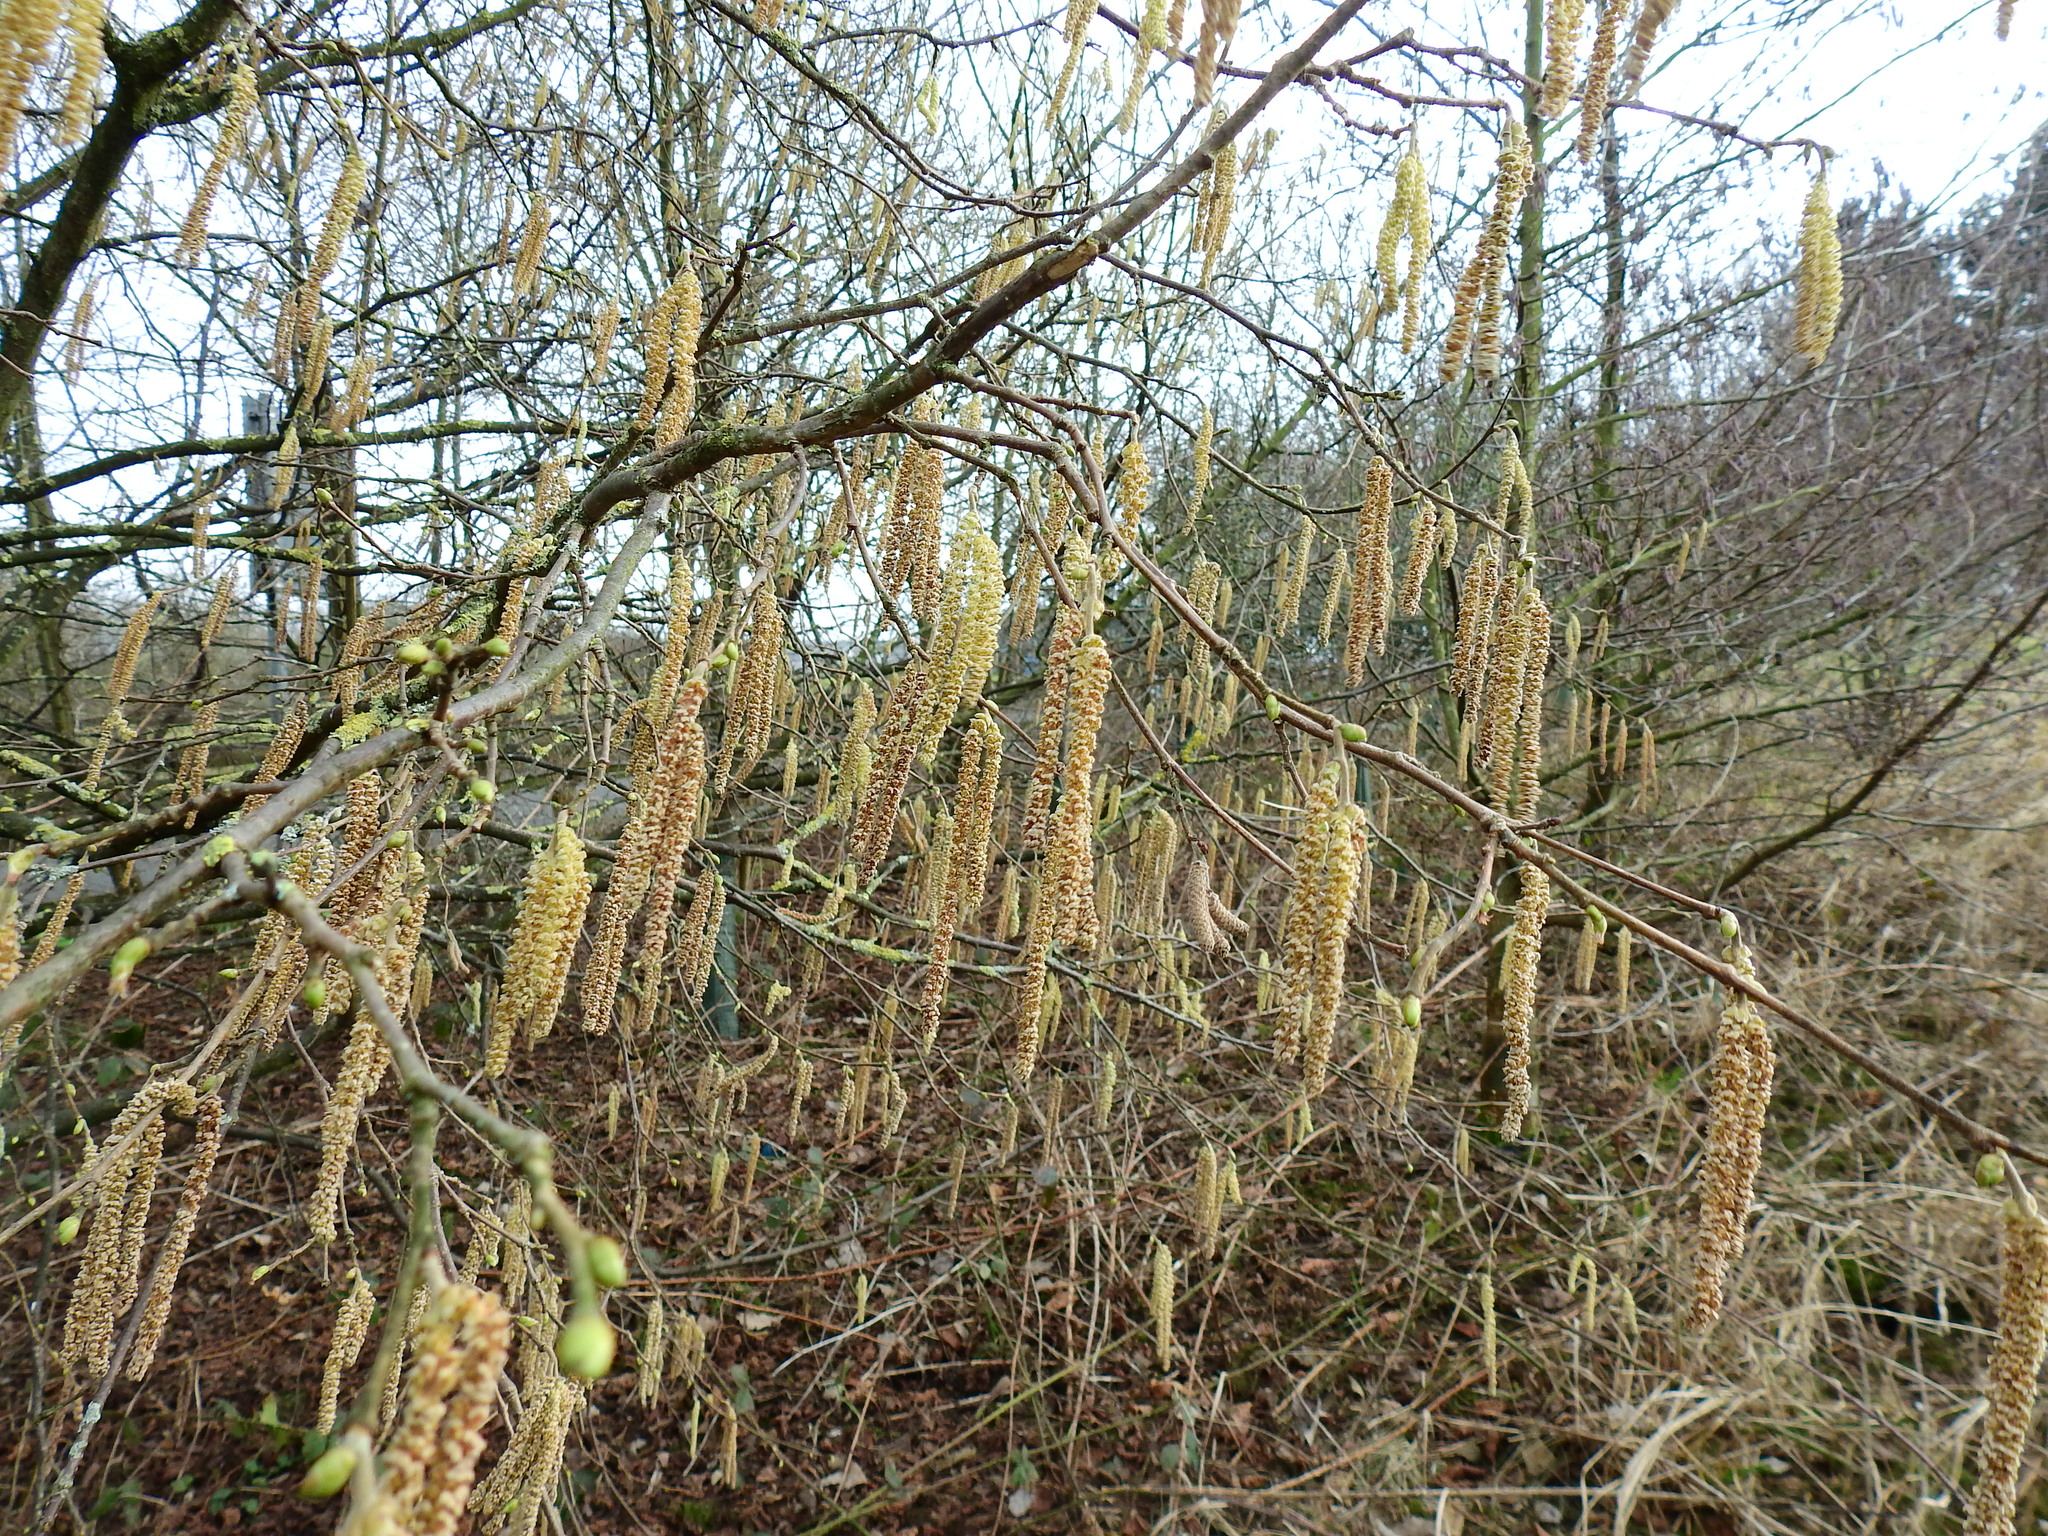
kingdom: Plantae
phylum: Tracheophyta
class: Magnoliopsida
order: Fagales
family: Betulaceae
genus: Corylus
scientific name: Corylus avellana
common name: European hazel
